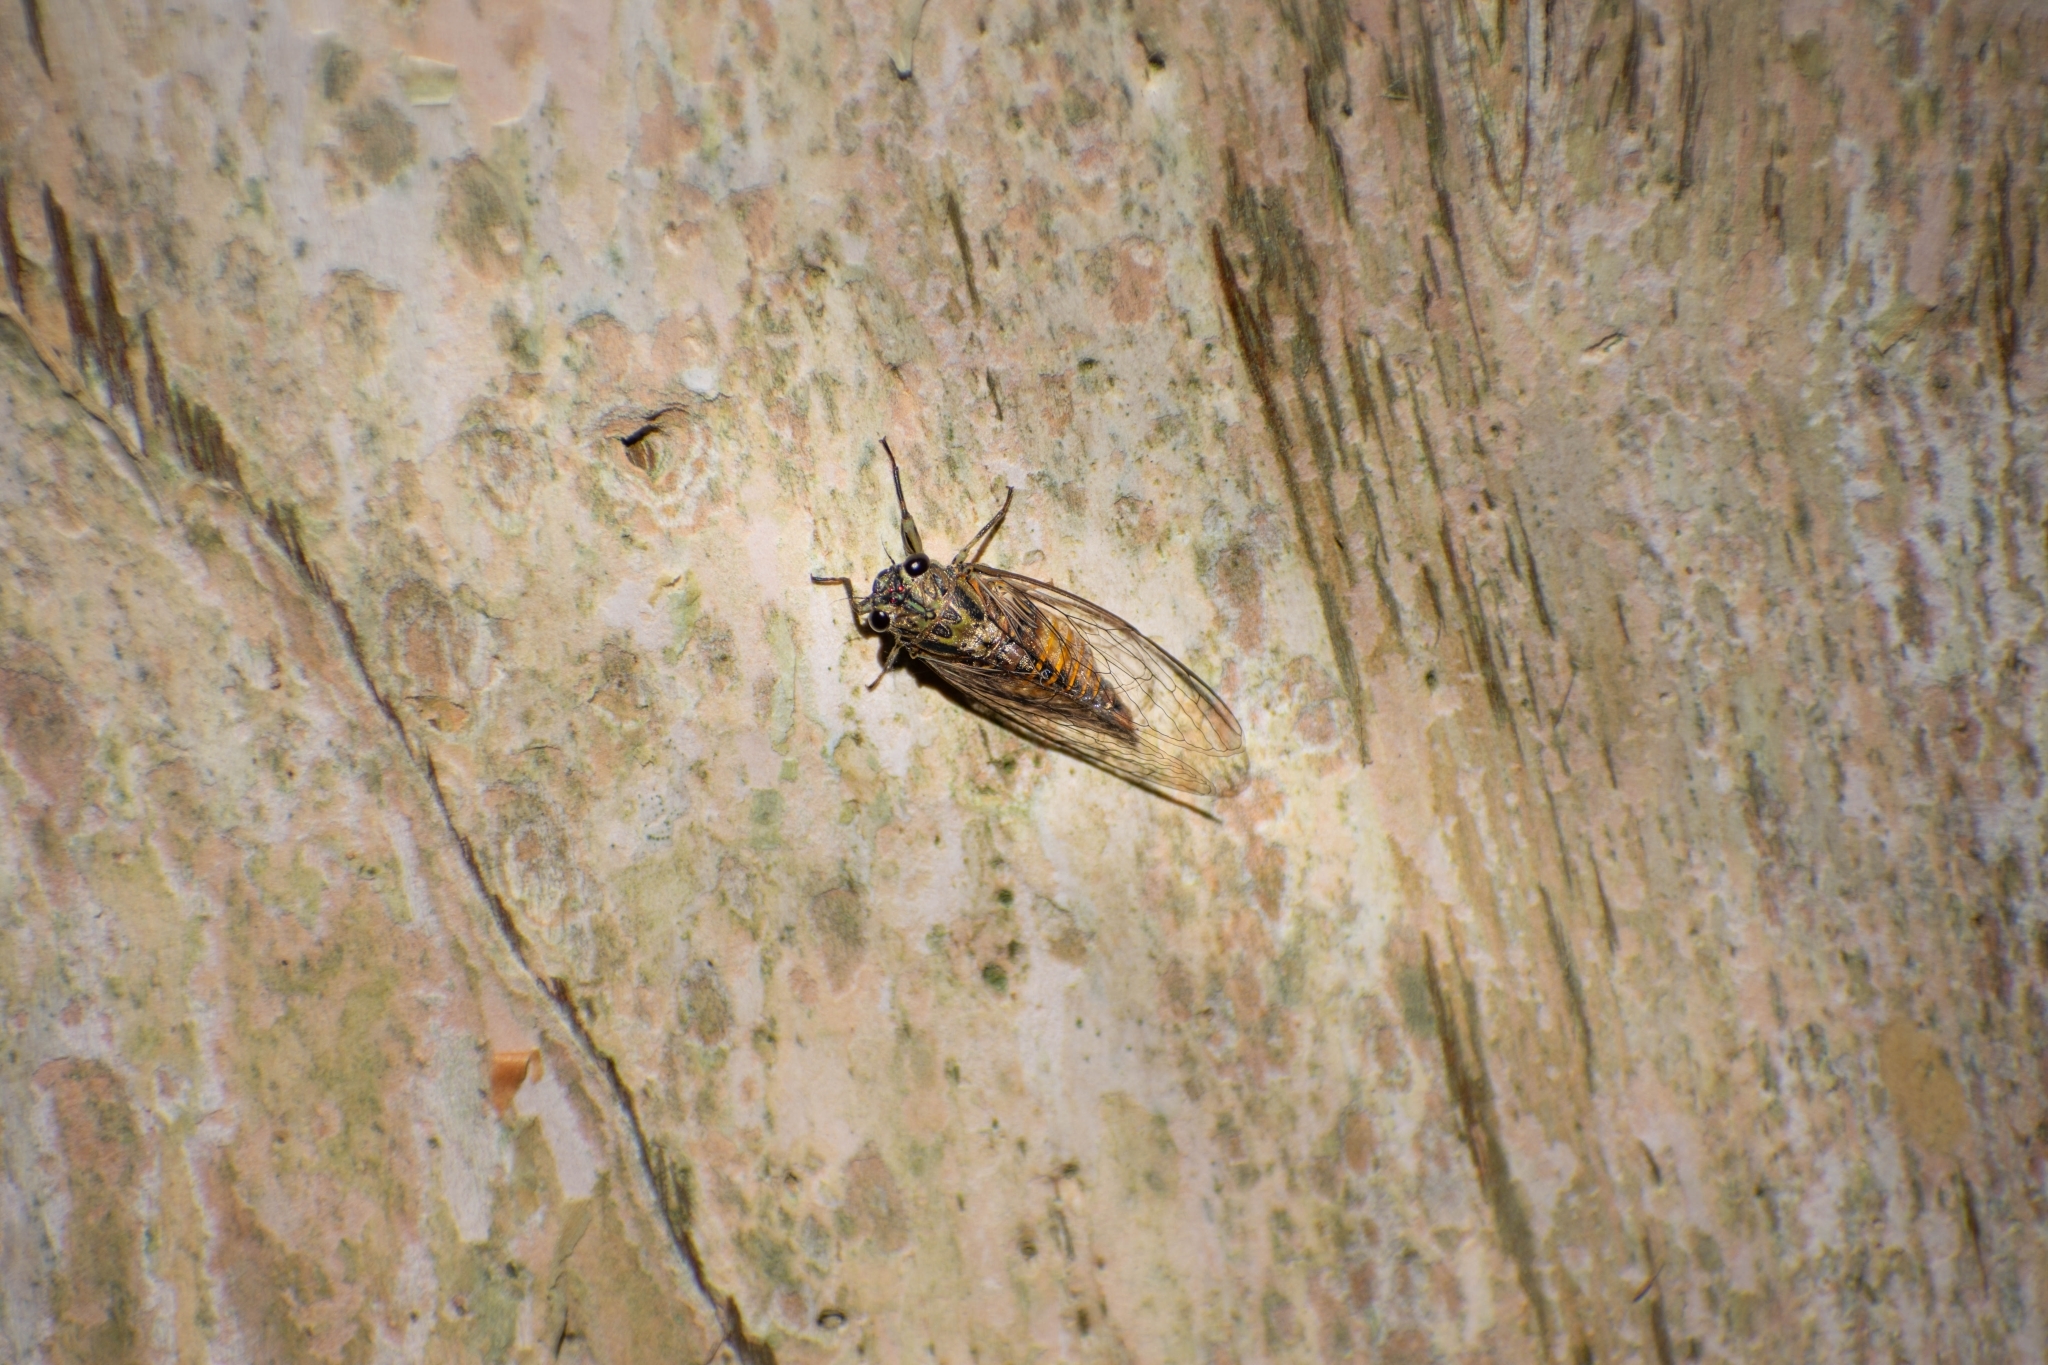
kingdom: Animalia
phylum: Arthropoda
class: Insecta
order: Hemiptera
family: Cicadidae
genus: Yoyetta
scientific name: Yoyetta celis
